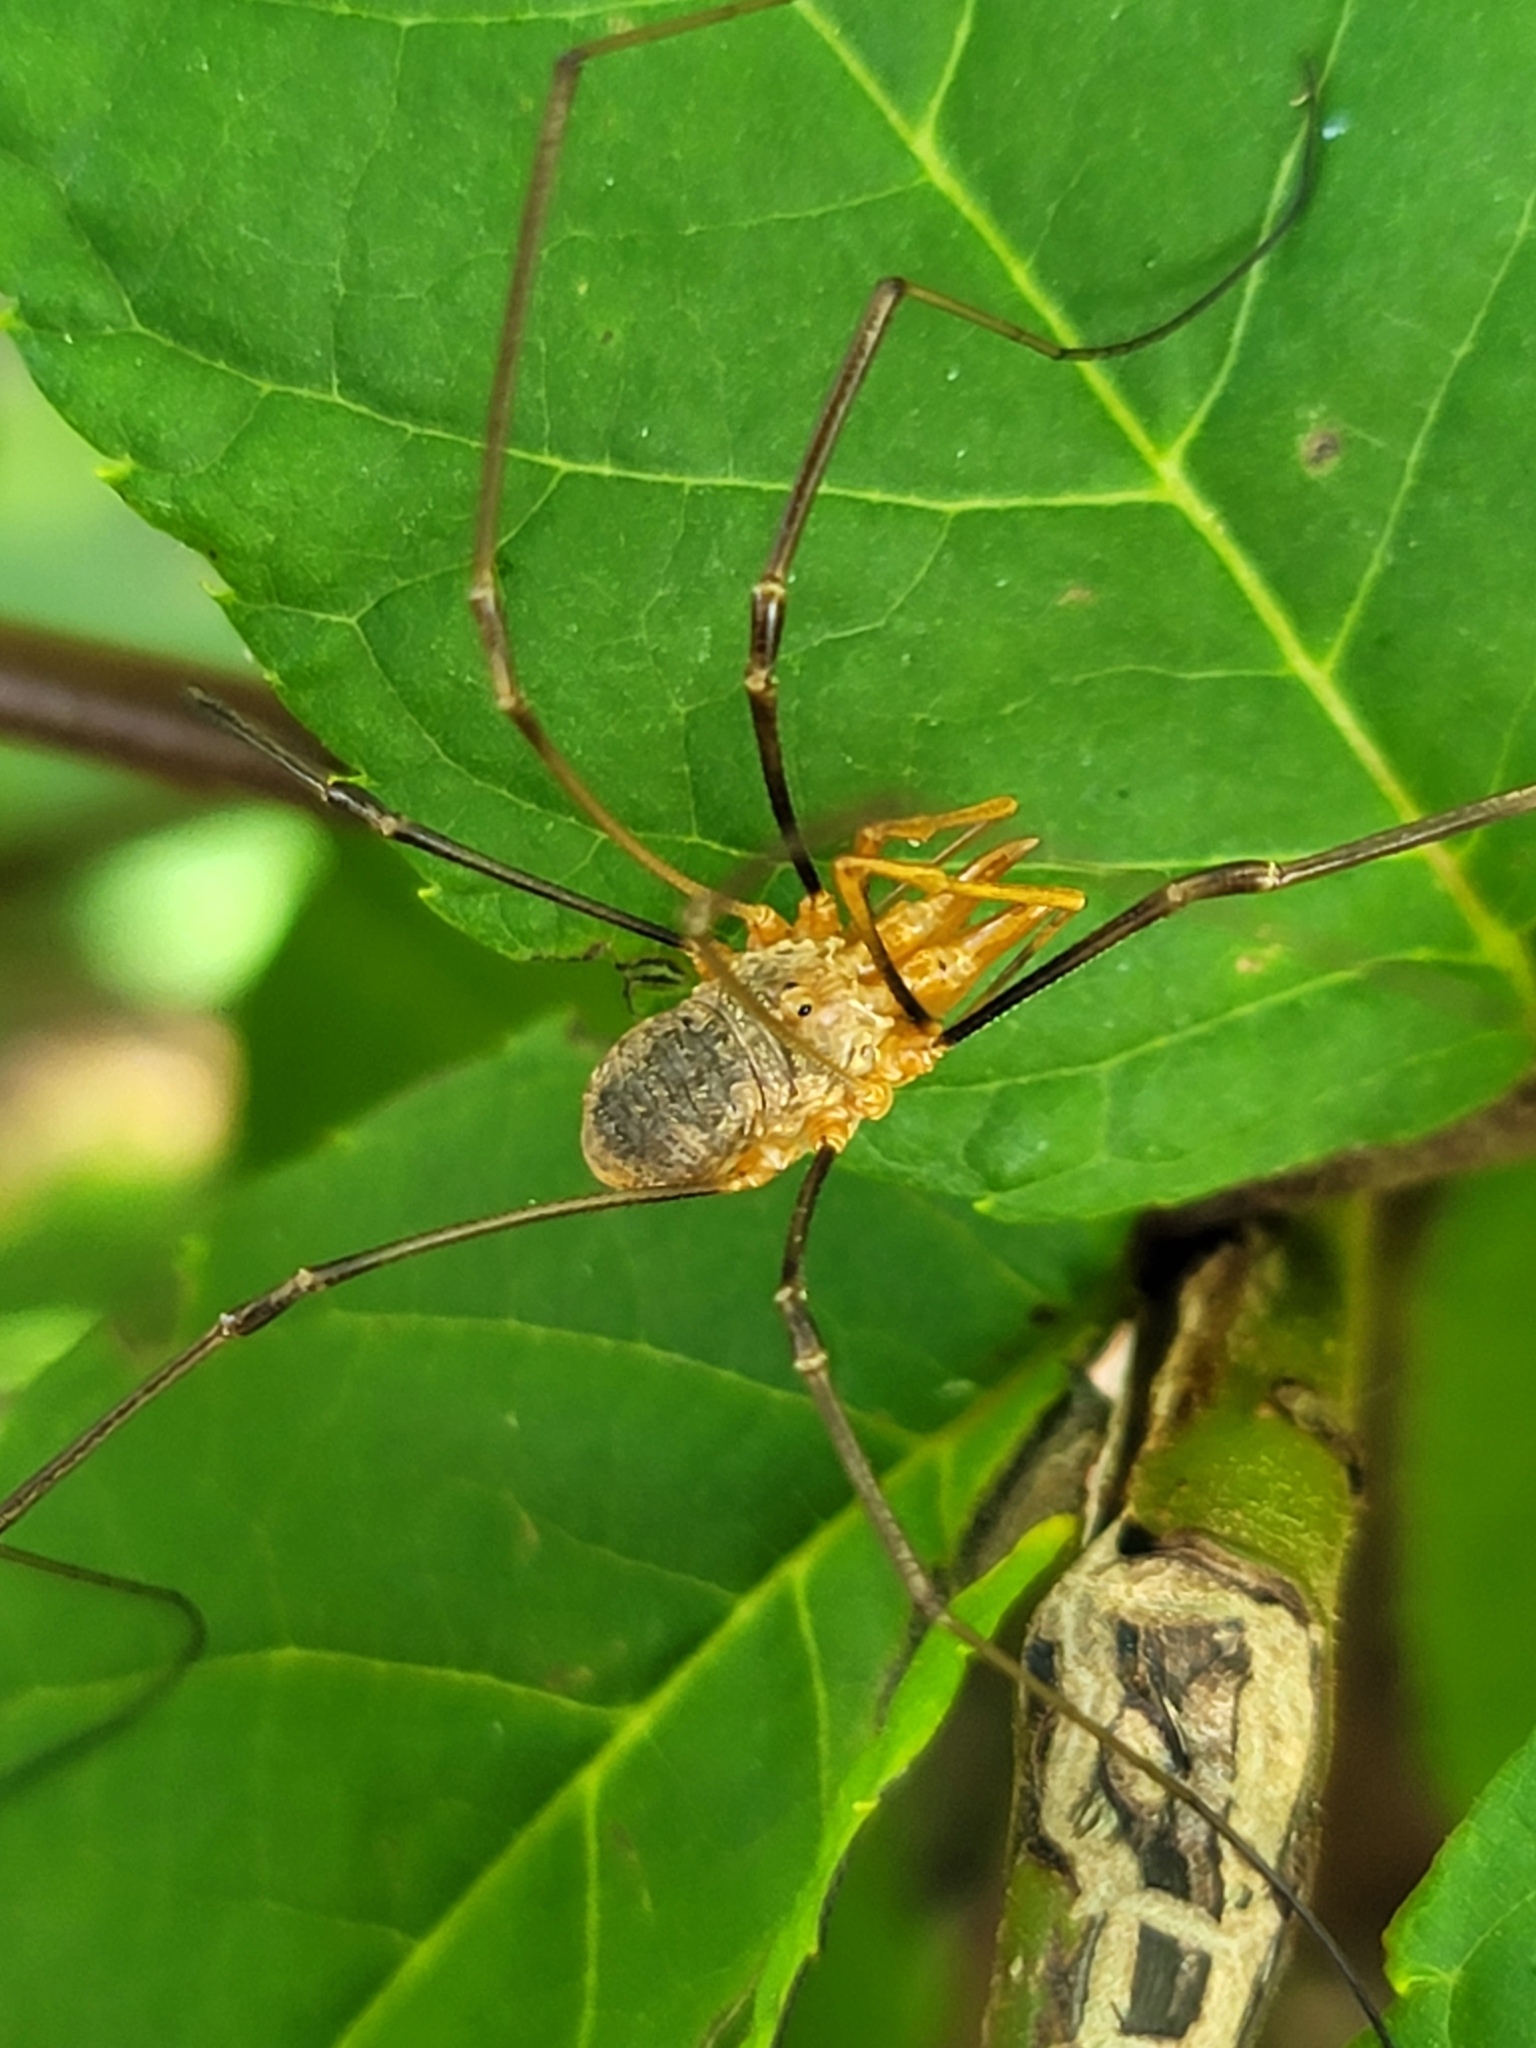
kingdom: Animalia
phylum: Arthropoda
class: Arachnida
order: Opiliones
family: Phalangiidae
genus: Phalangium
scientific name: Phalangium opilio
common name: Daddy longleg
